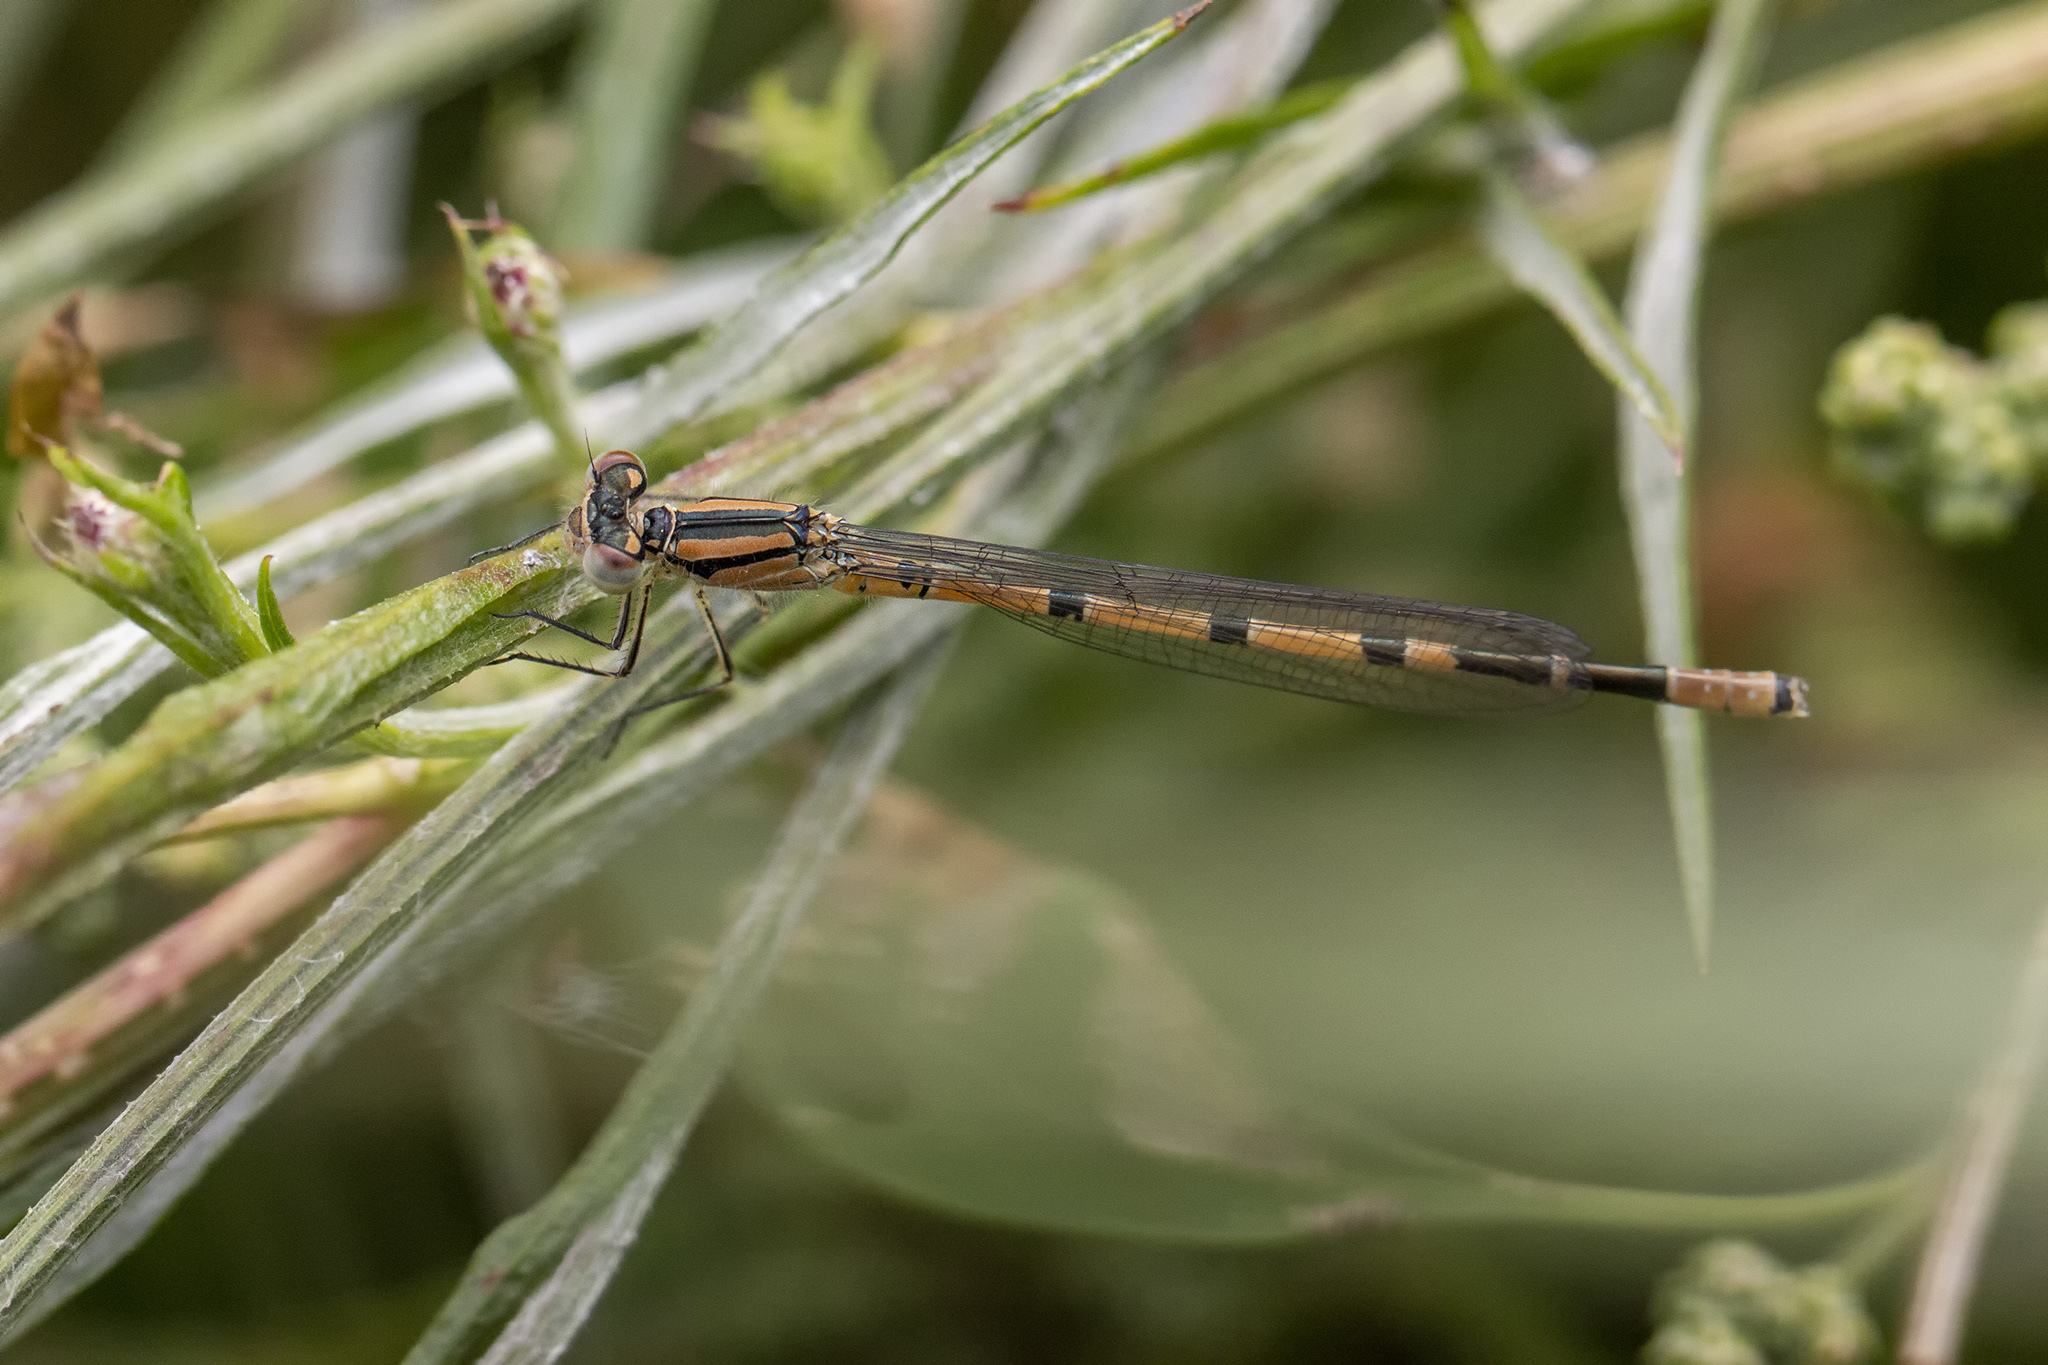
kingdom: Animalia
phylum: Arthropoda
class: Insecta
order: Odonata
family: Coenagrionidae
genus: Enallagma
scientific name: Enallagma cyathigerum
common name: Common blue damselfly
